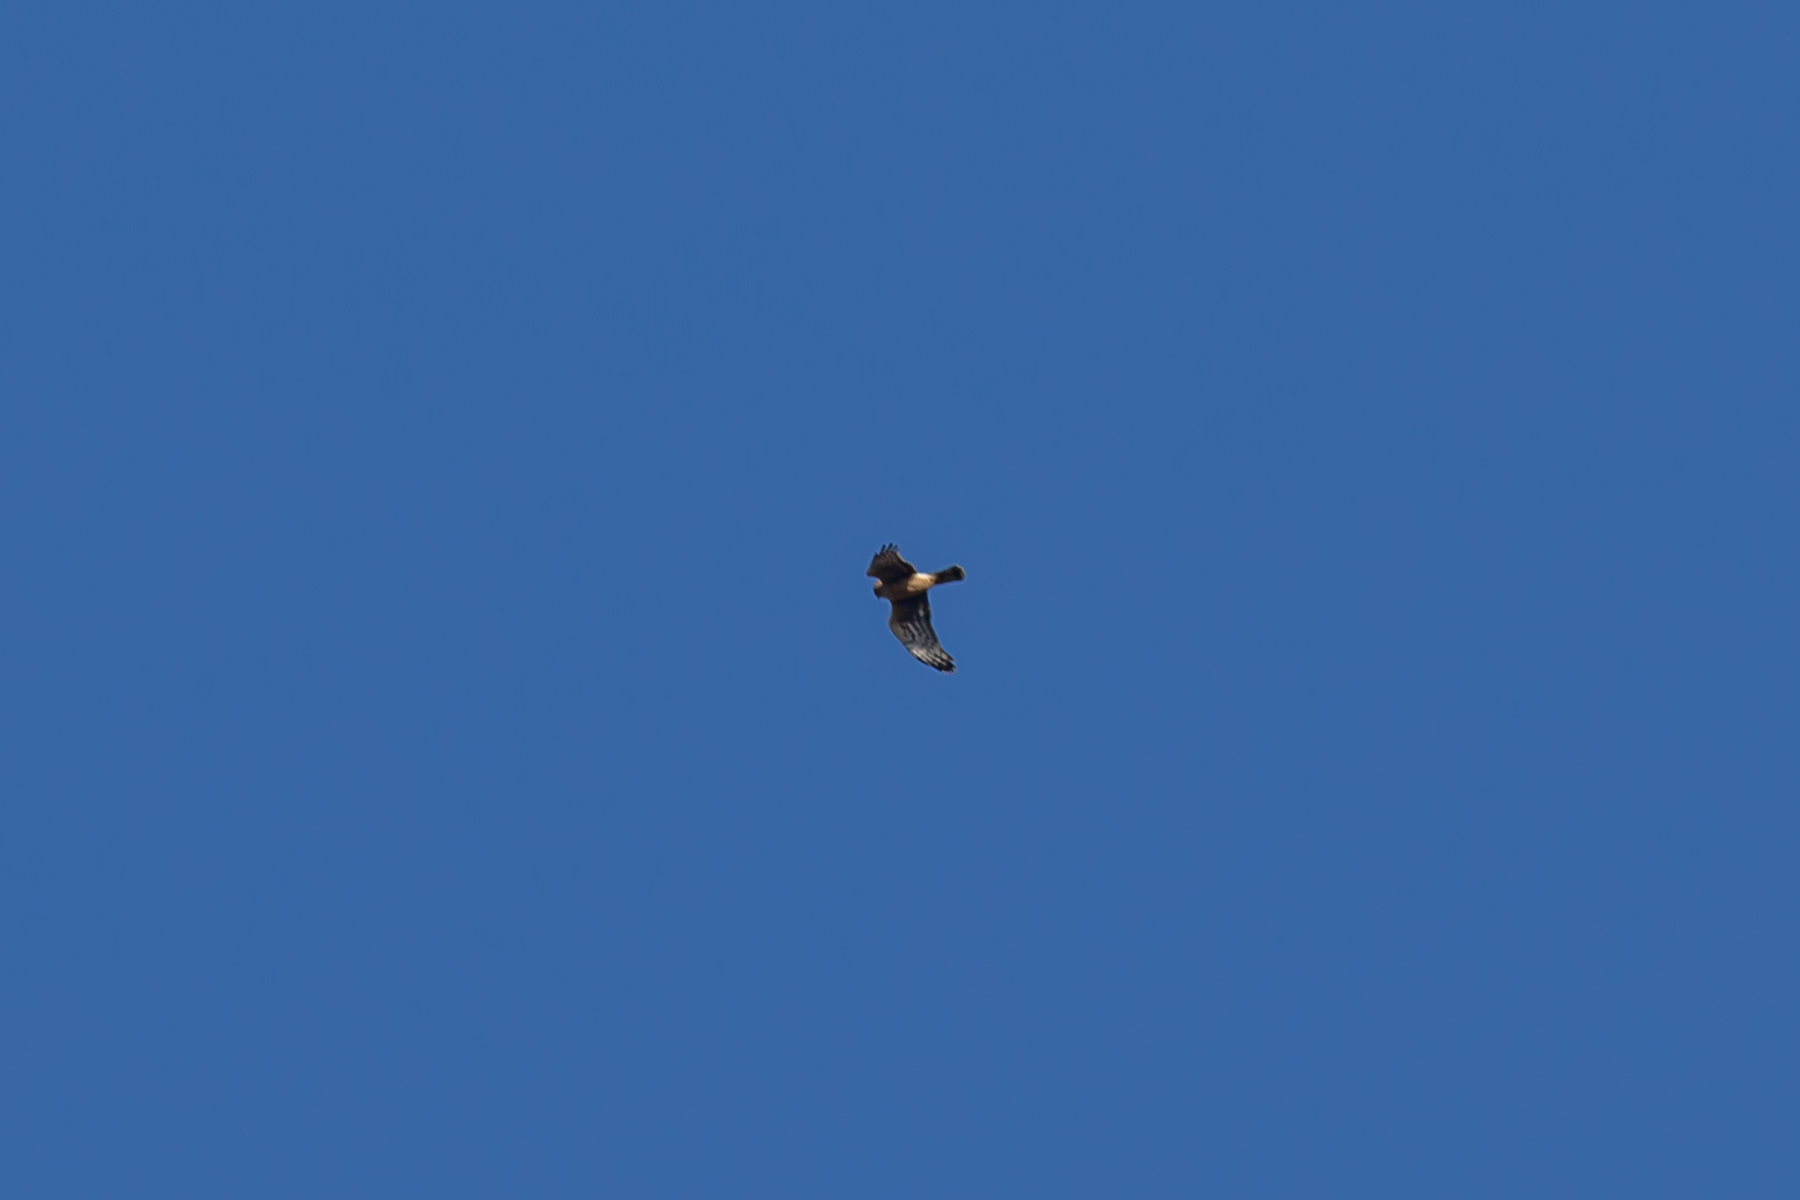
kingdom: Animalia
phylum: Chordata
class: Aves
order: Accipitriformes
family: Accipitridae
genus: Circus
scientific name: Circus cyaneus
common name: Hen harrier
